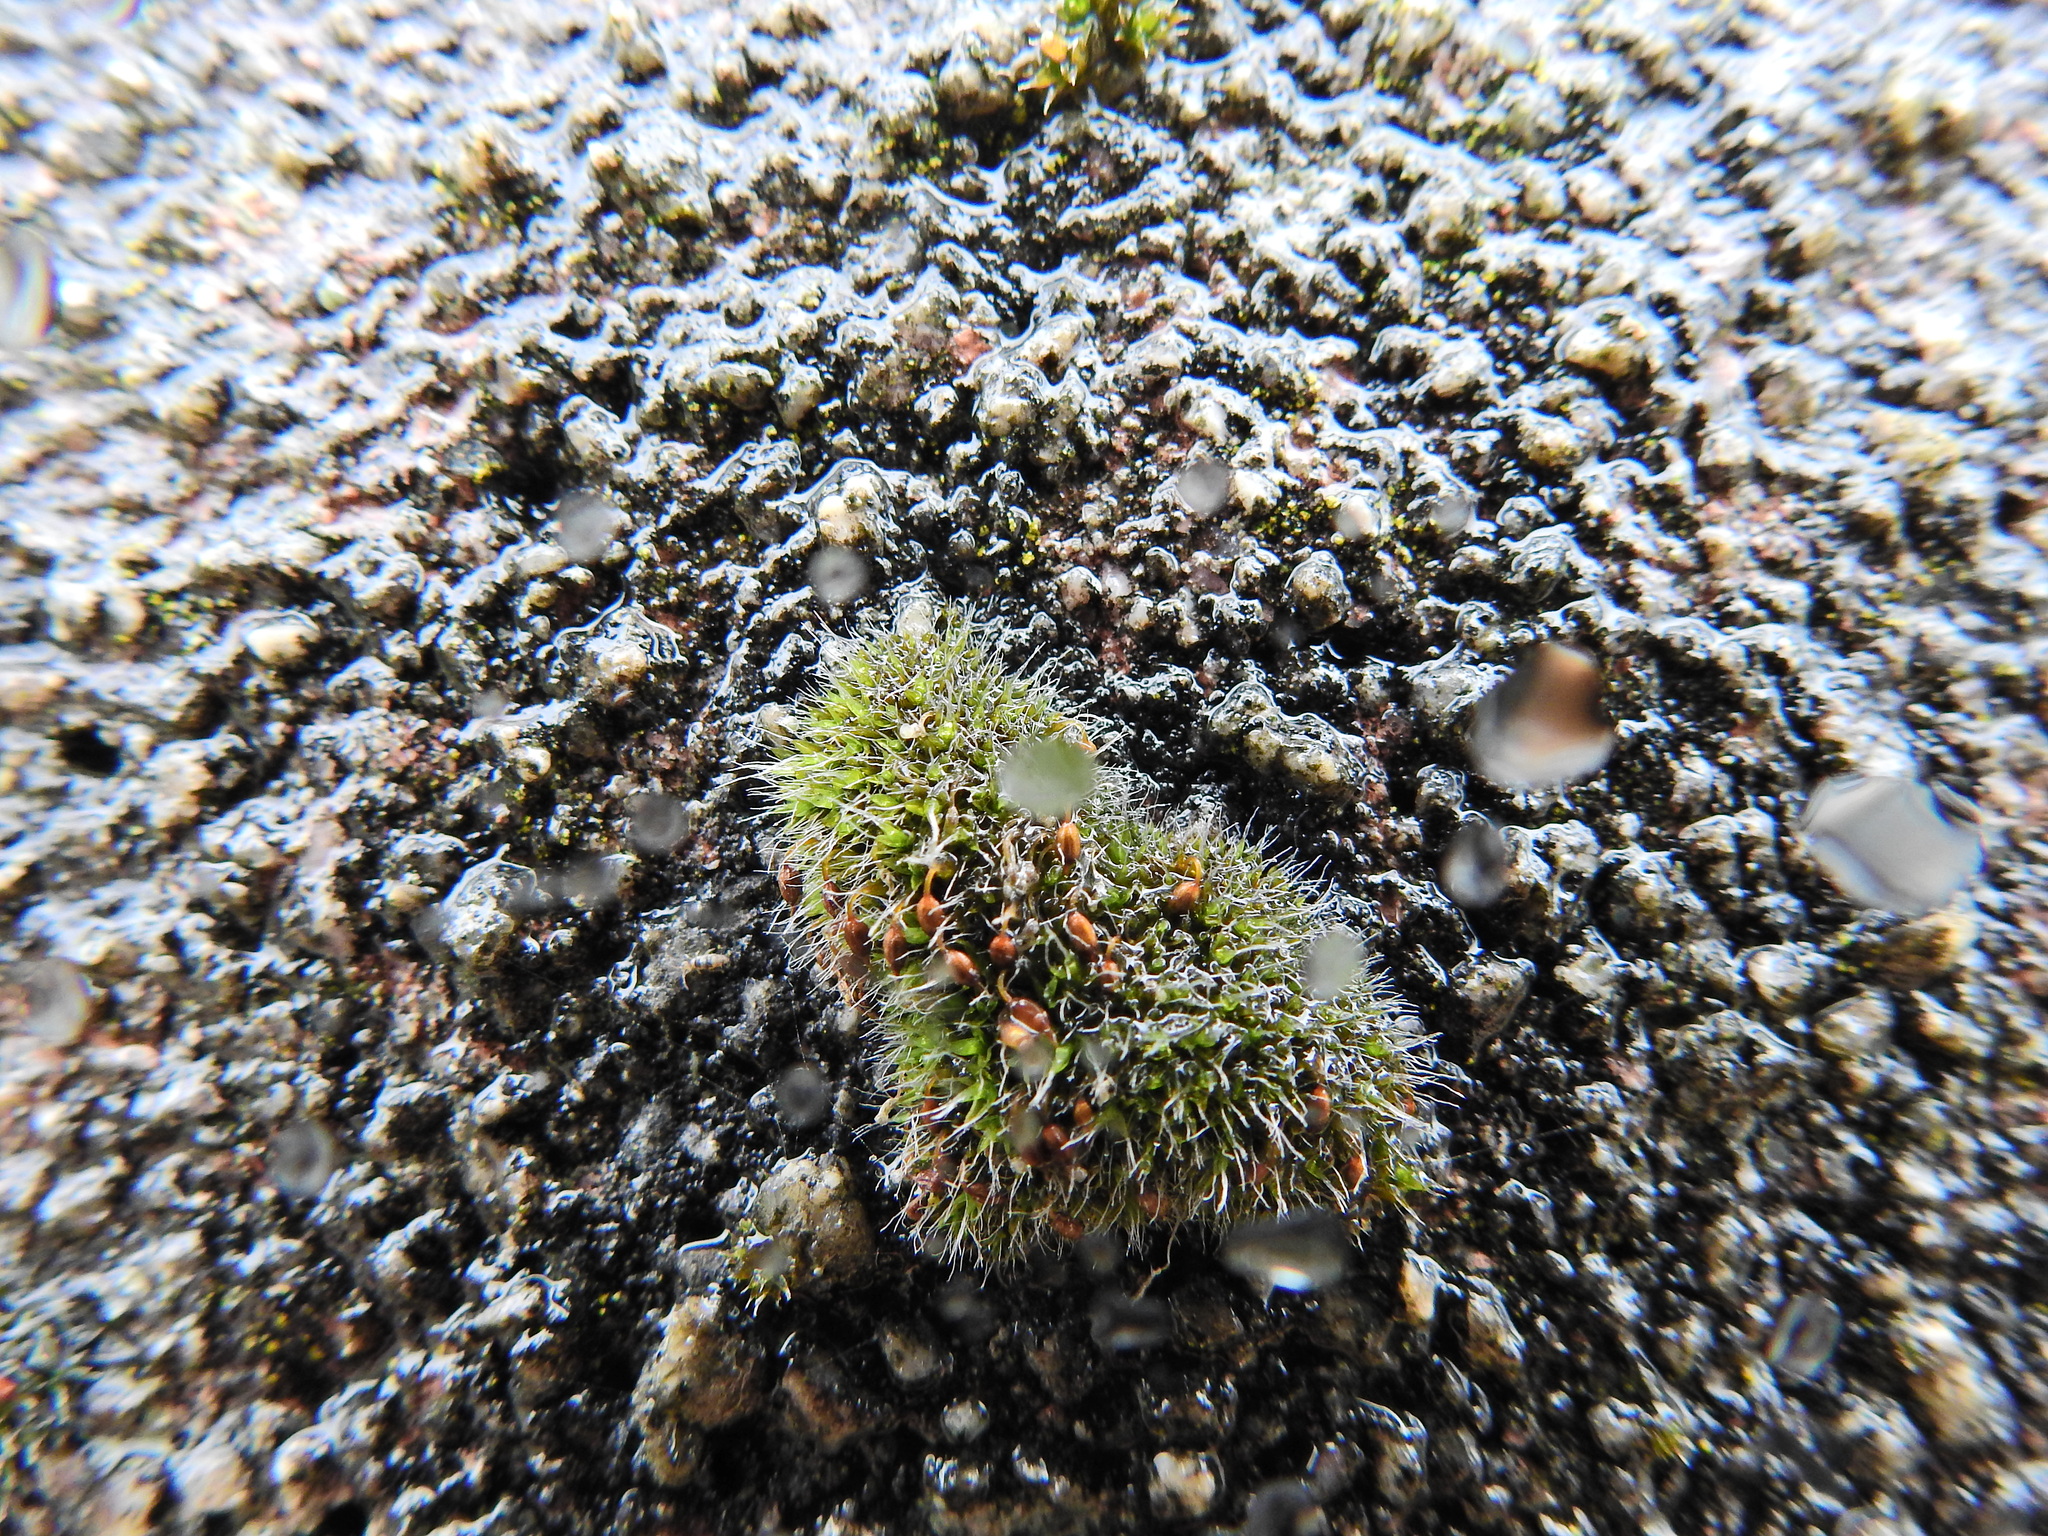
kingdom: Plantae
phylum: Bryophyta
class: Bryopsida
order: Grimmiales
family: Grimmiaceae
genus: Grimmia
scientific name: Grimmia pulvinata
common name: Grey-cushioned grimmia
